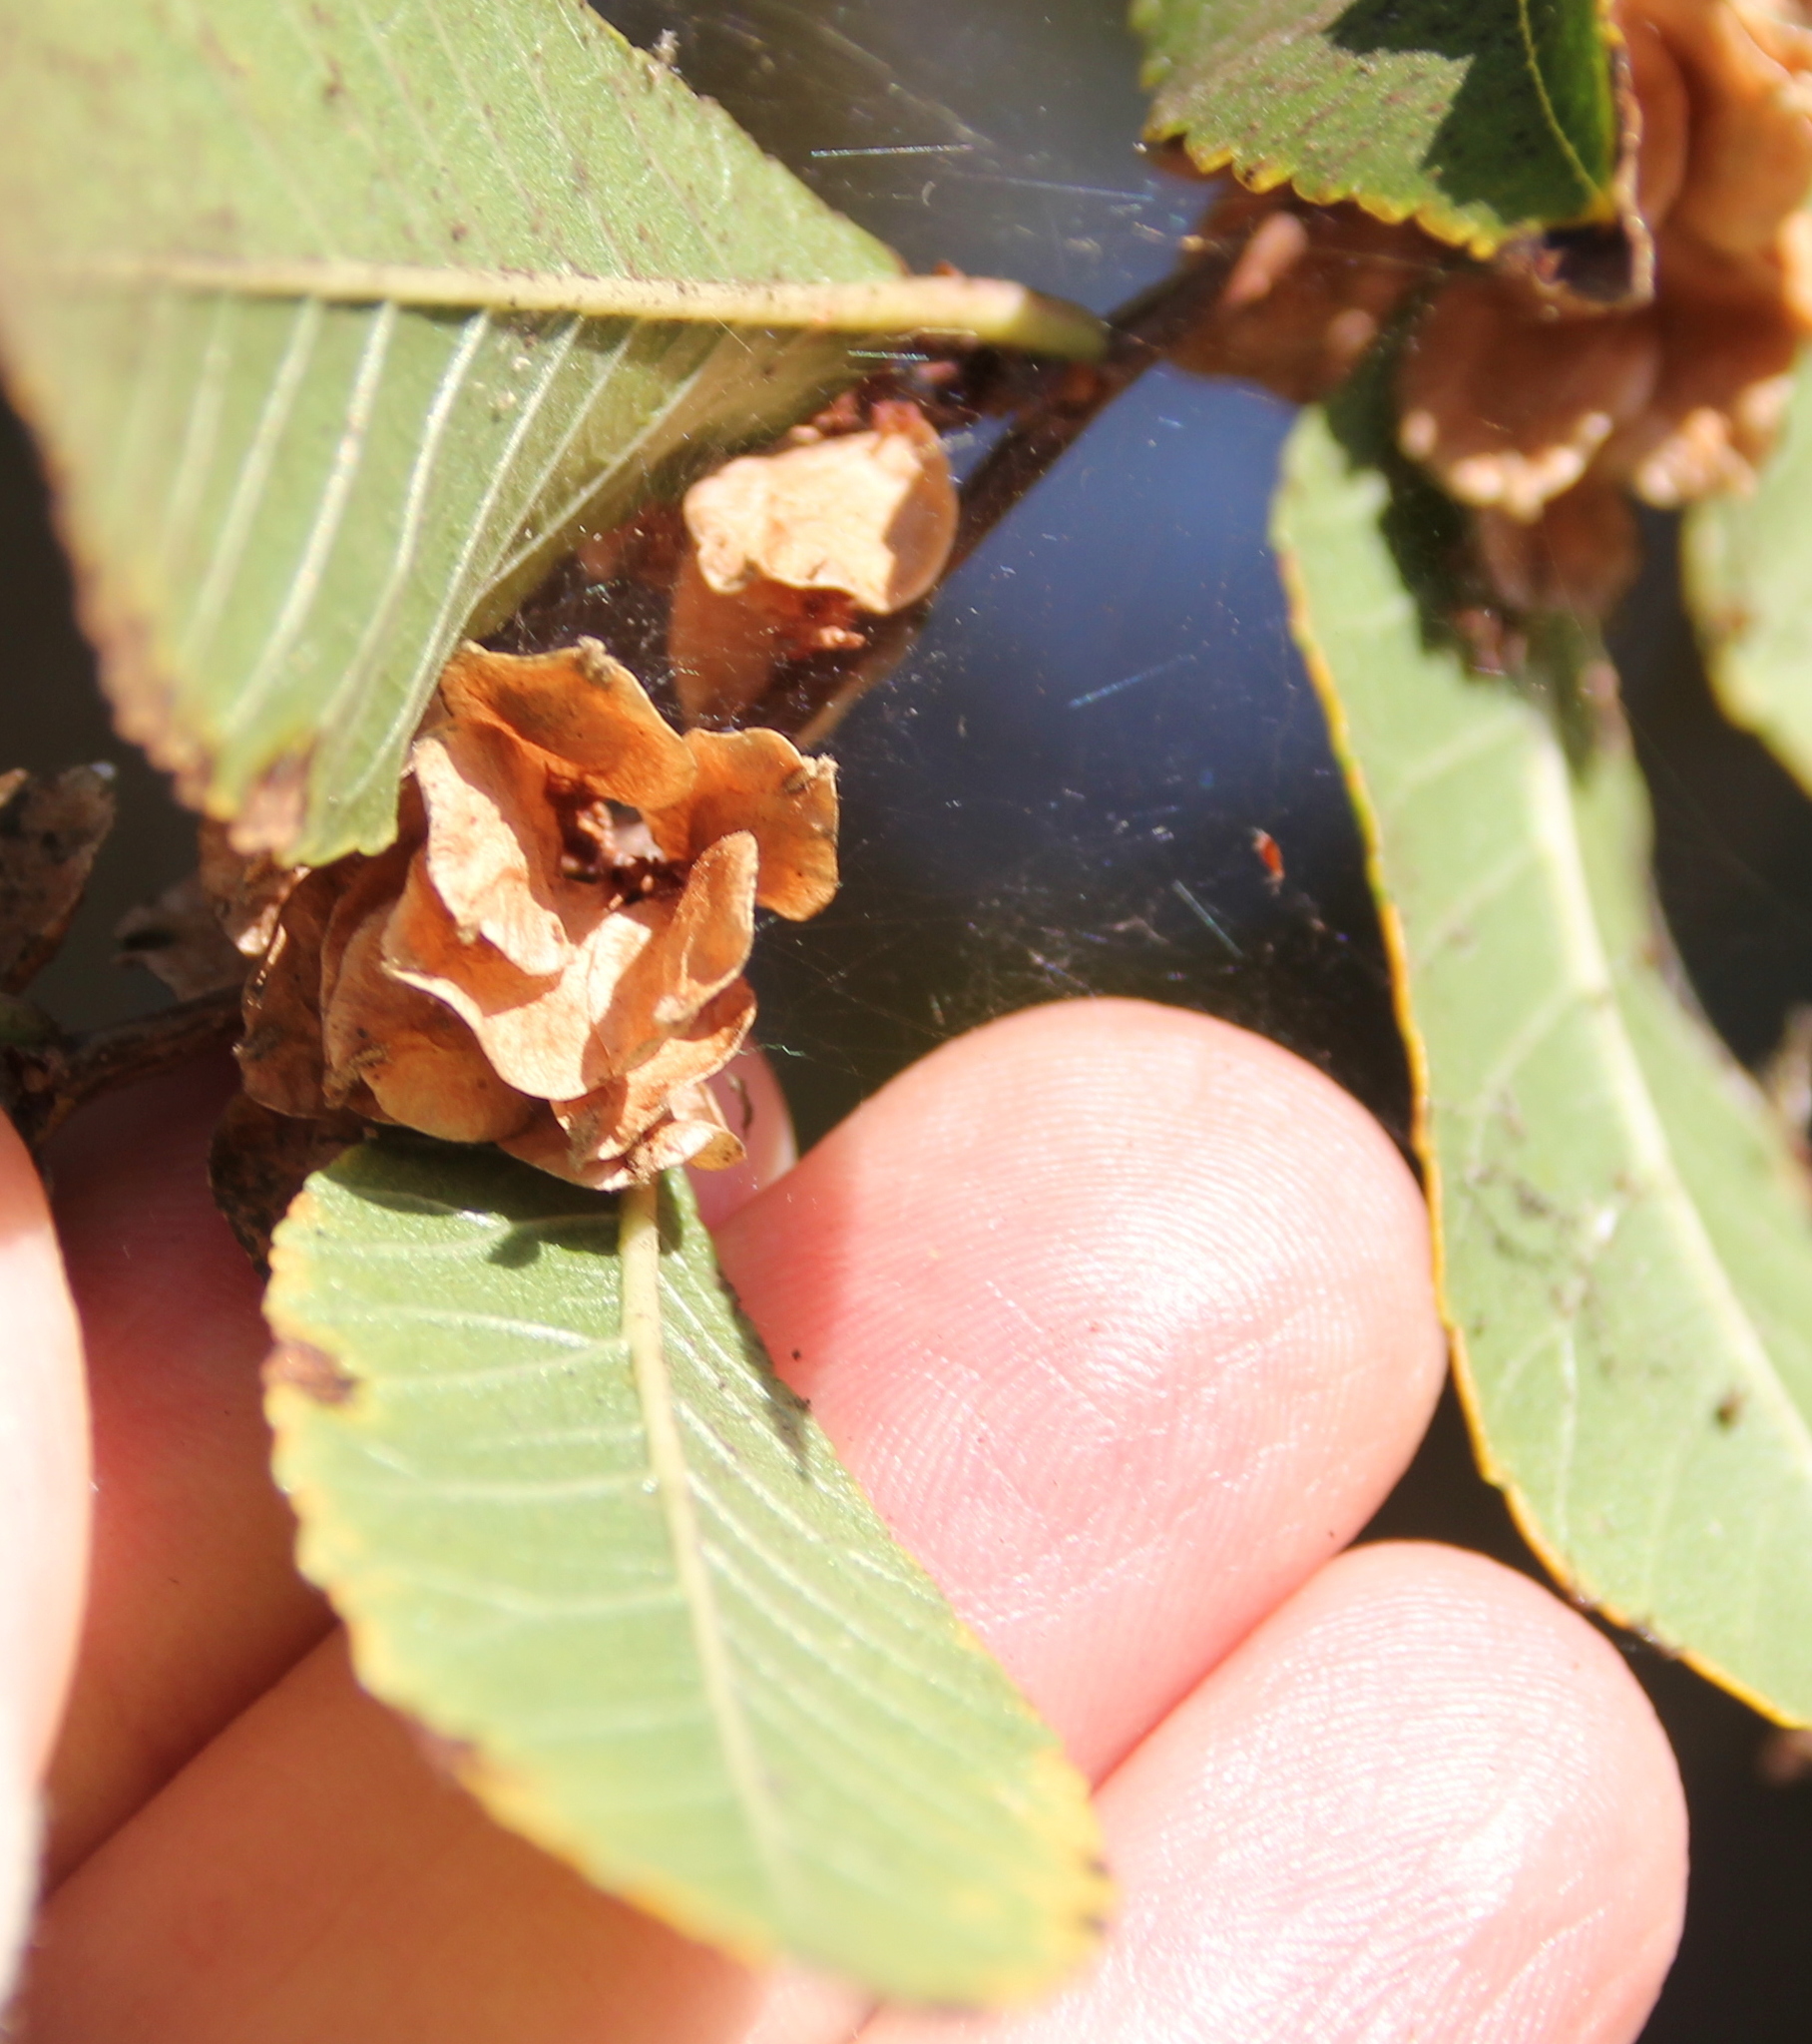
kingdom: Plantae
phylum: Tracheophyta
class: Magnoliopsida
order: Rosales
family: Ulmaceae
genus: Ulmus
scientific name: Ulmus parvifolia
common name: Chinese elm
